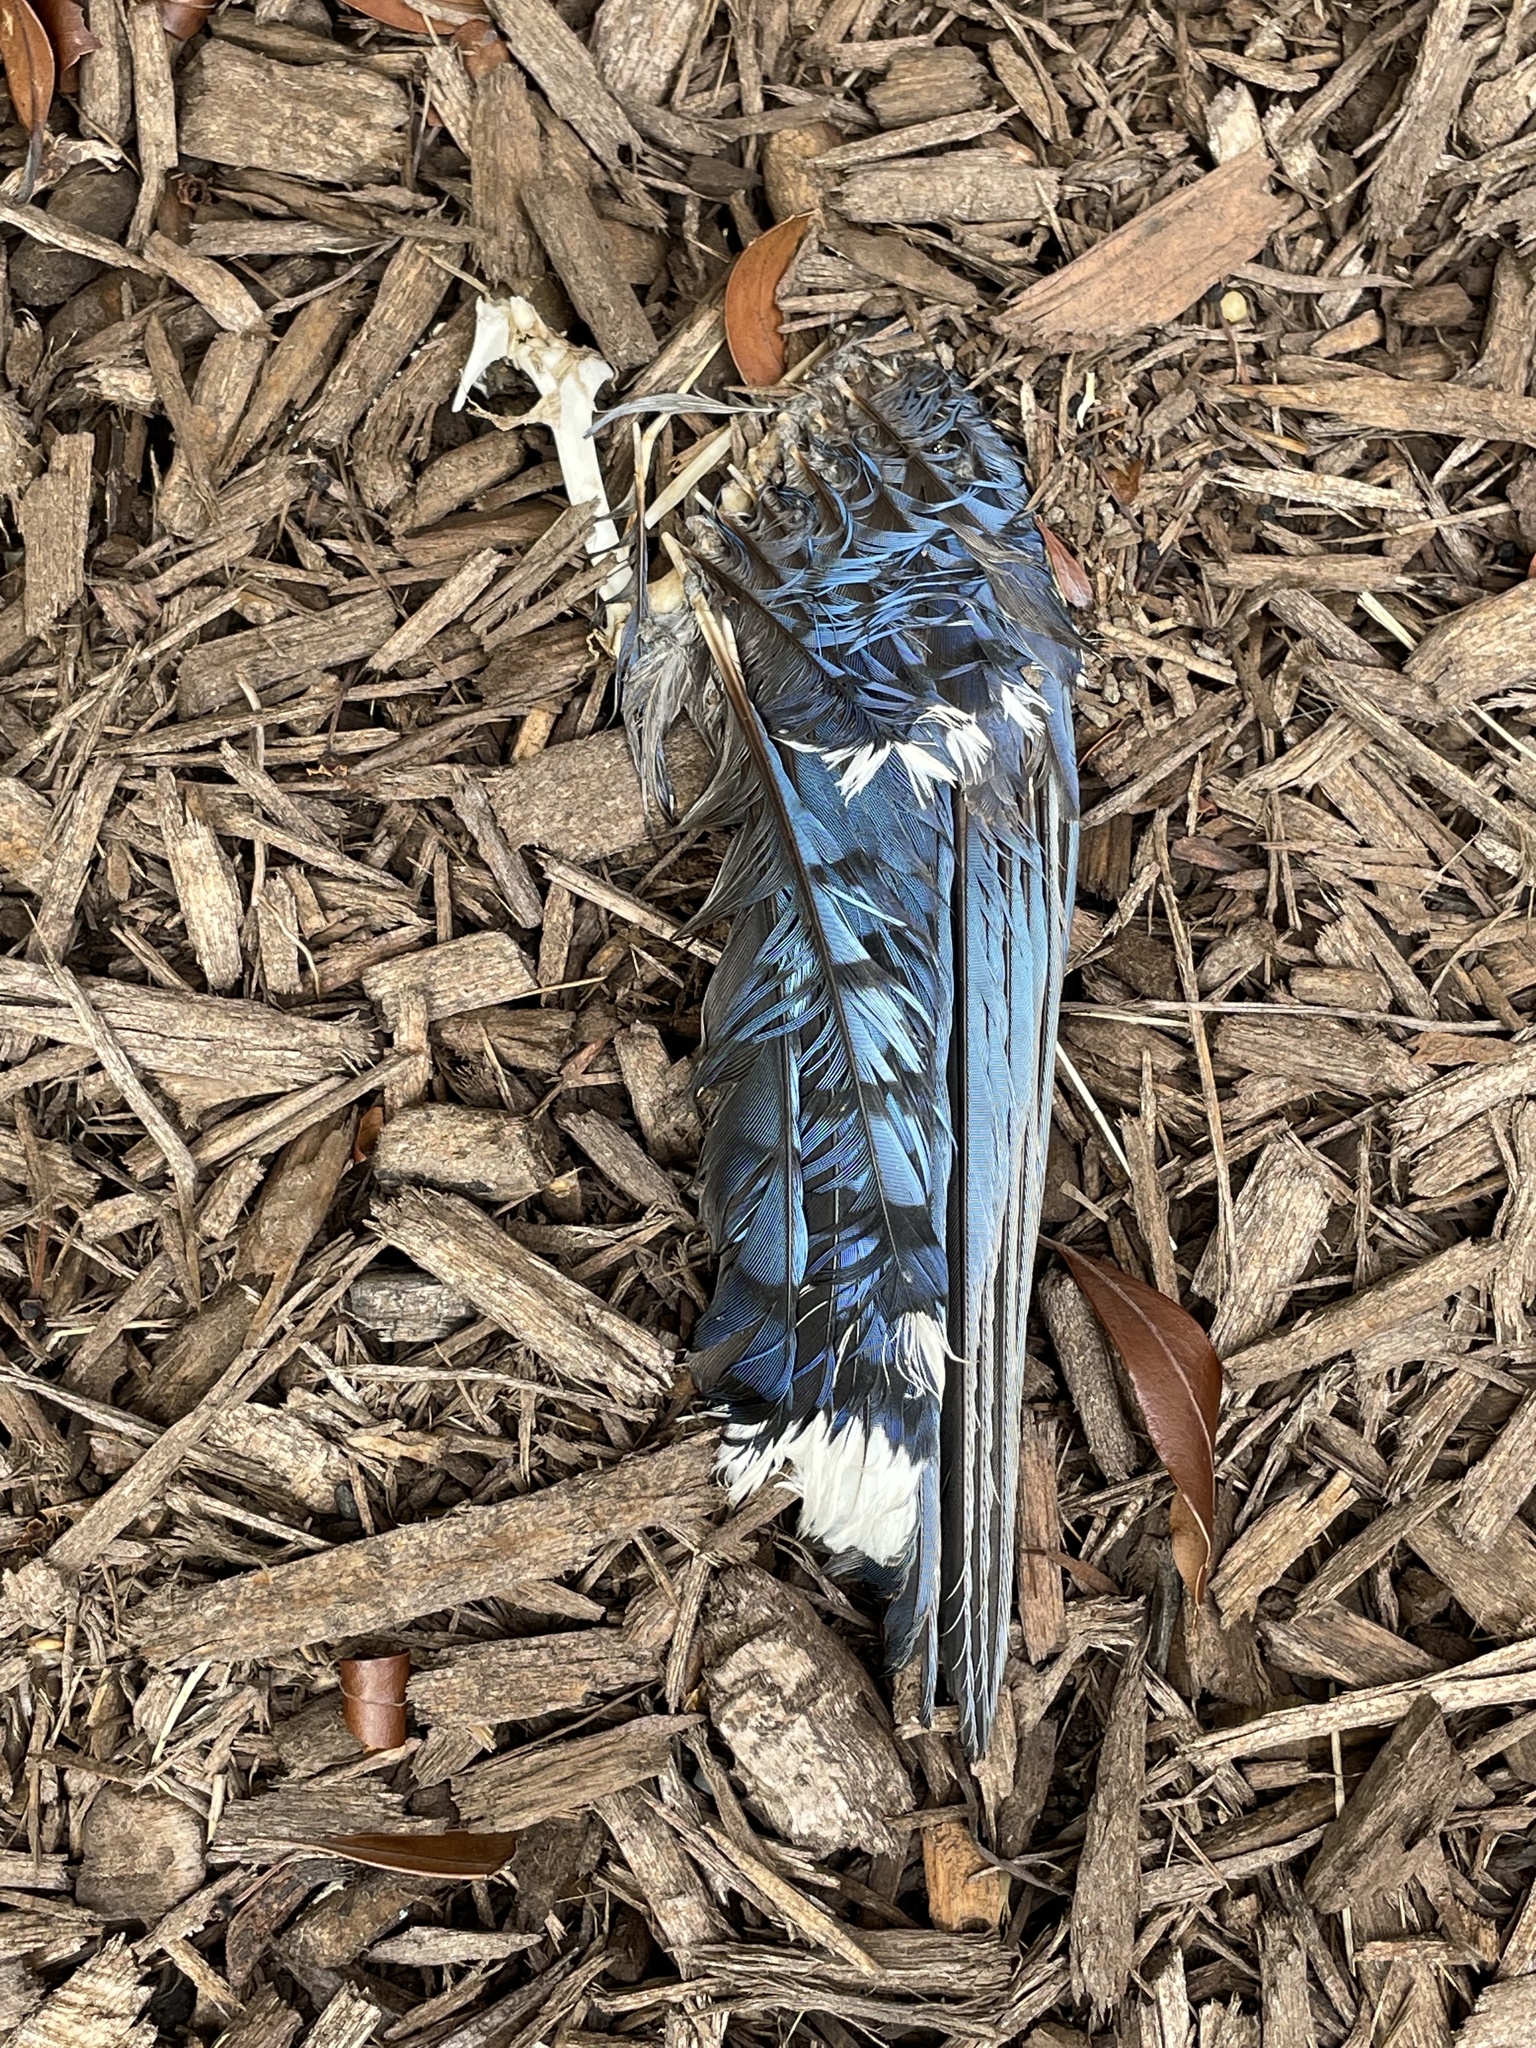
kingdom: Animalia
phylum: Chordata
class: Aves
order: Passeriformes
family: Corvidae
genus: Cyanocitta
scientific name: Cyanocitta cristata
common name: Blue jay
